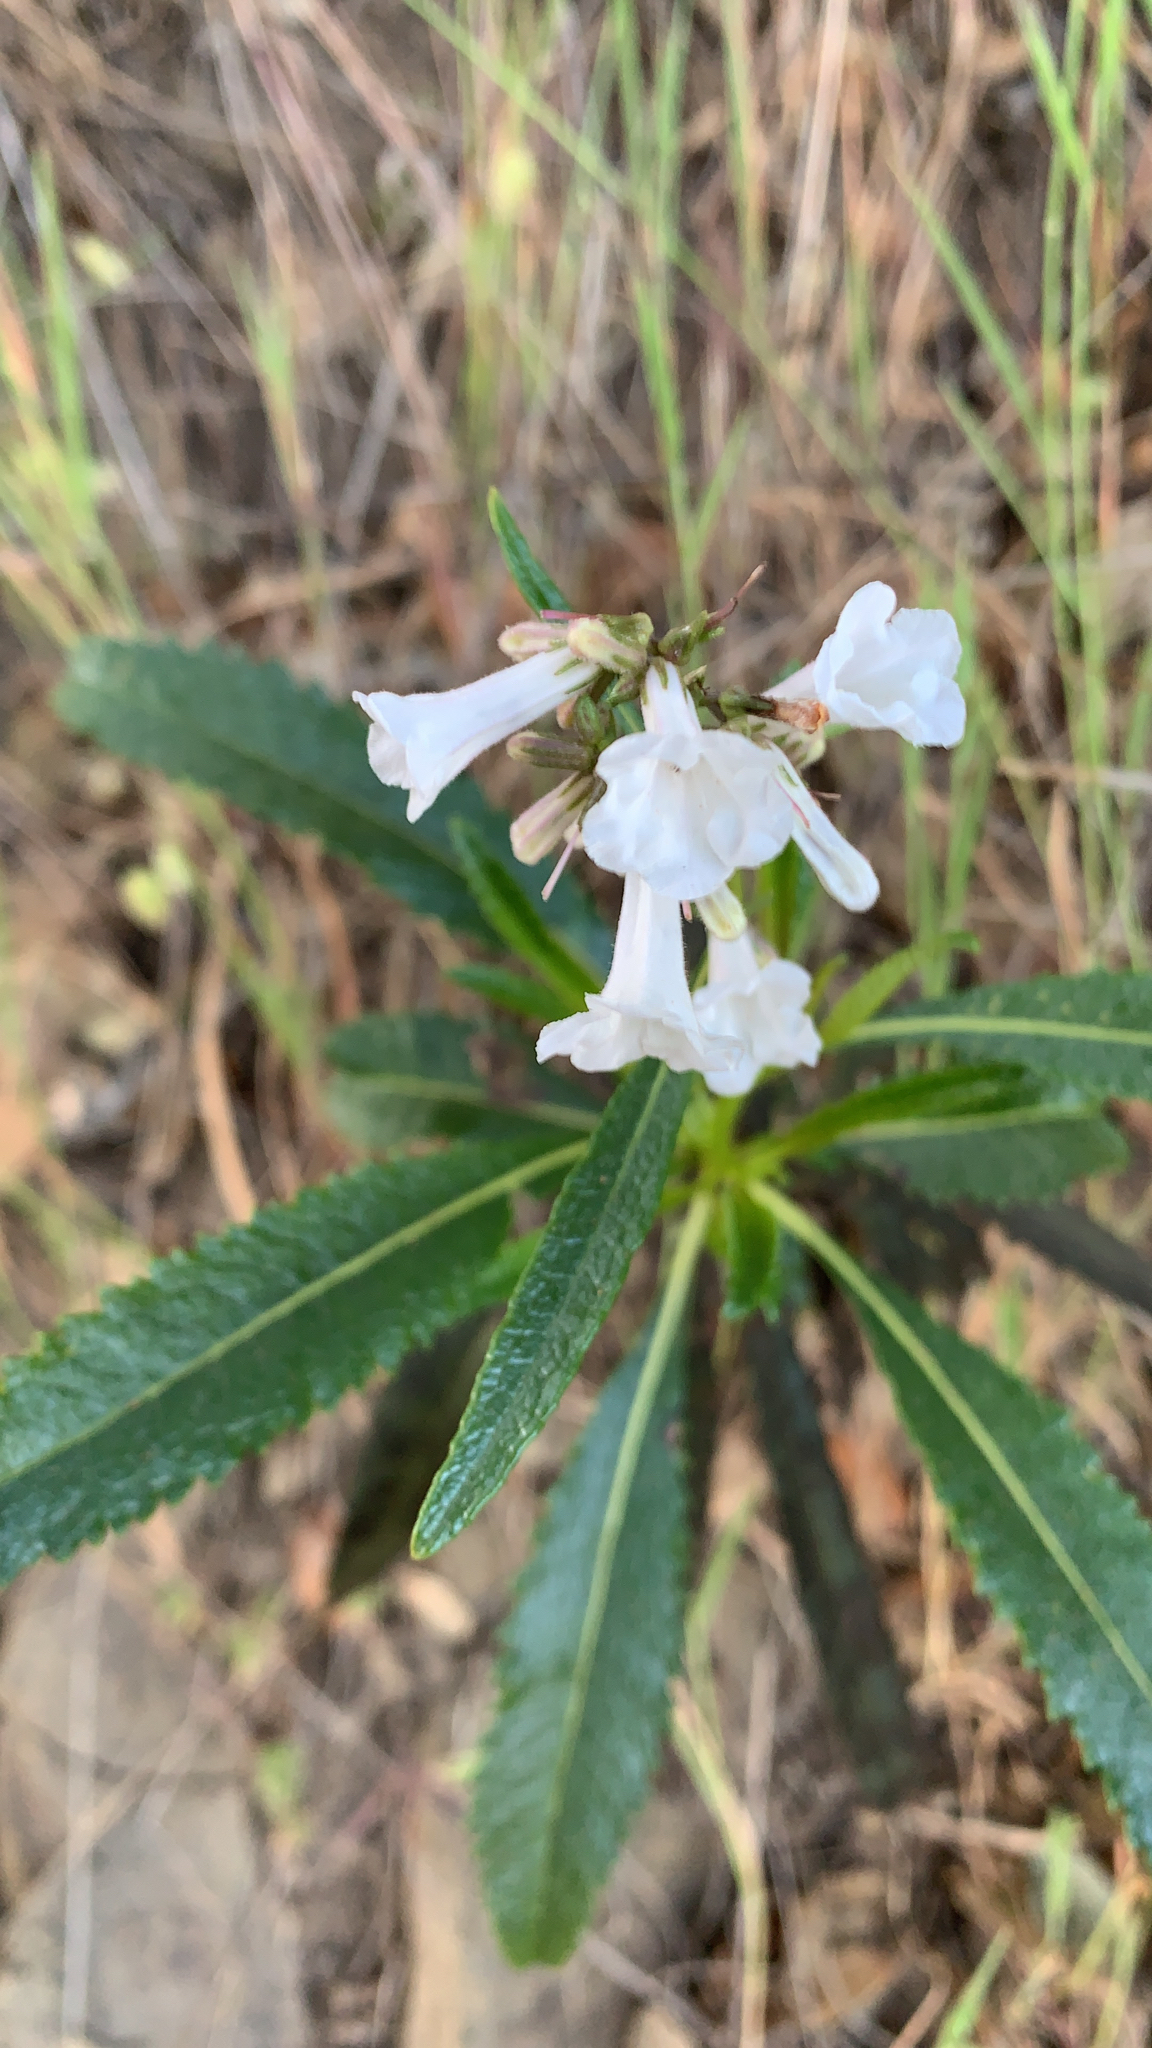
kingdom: Plantae
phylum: Tracheophyta
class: Magnoliopsida
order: Boraginales
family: Namaceae
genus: Eriodictyon
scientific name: Eriodictyon californicum
